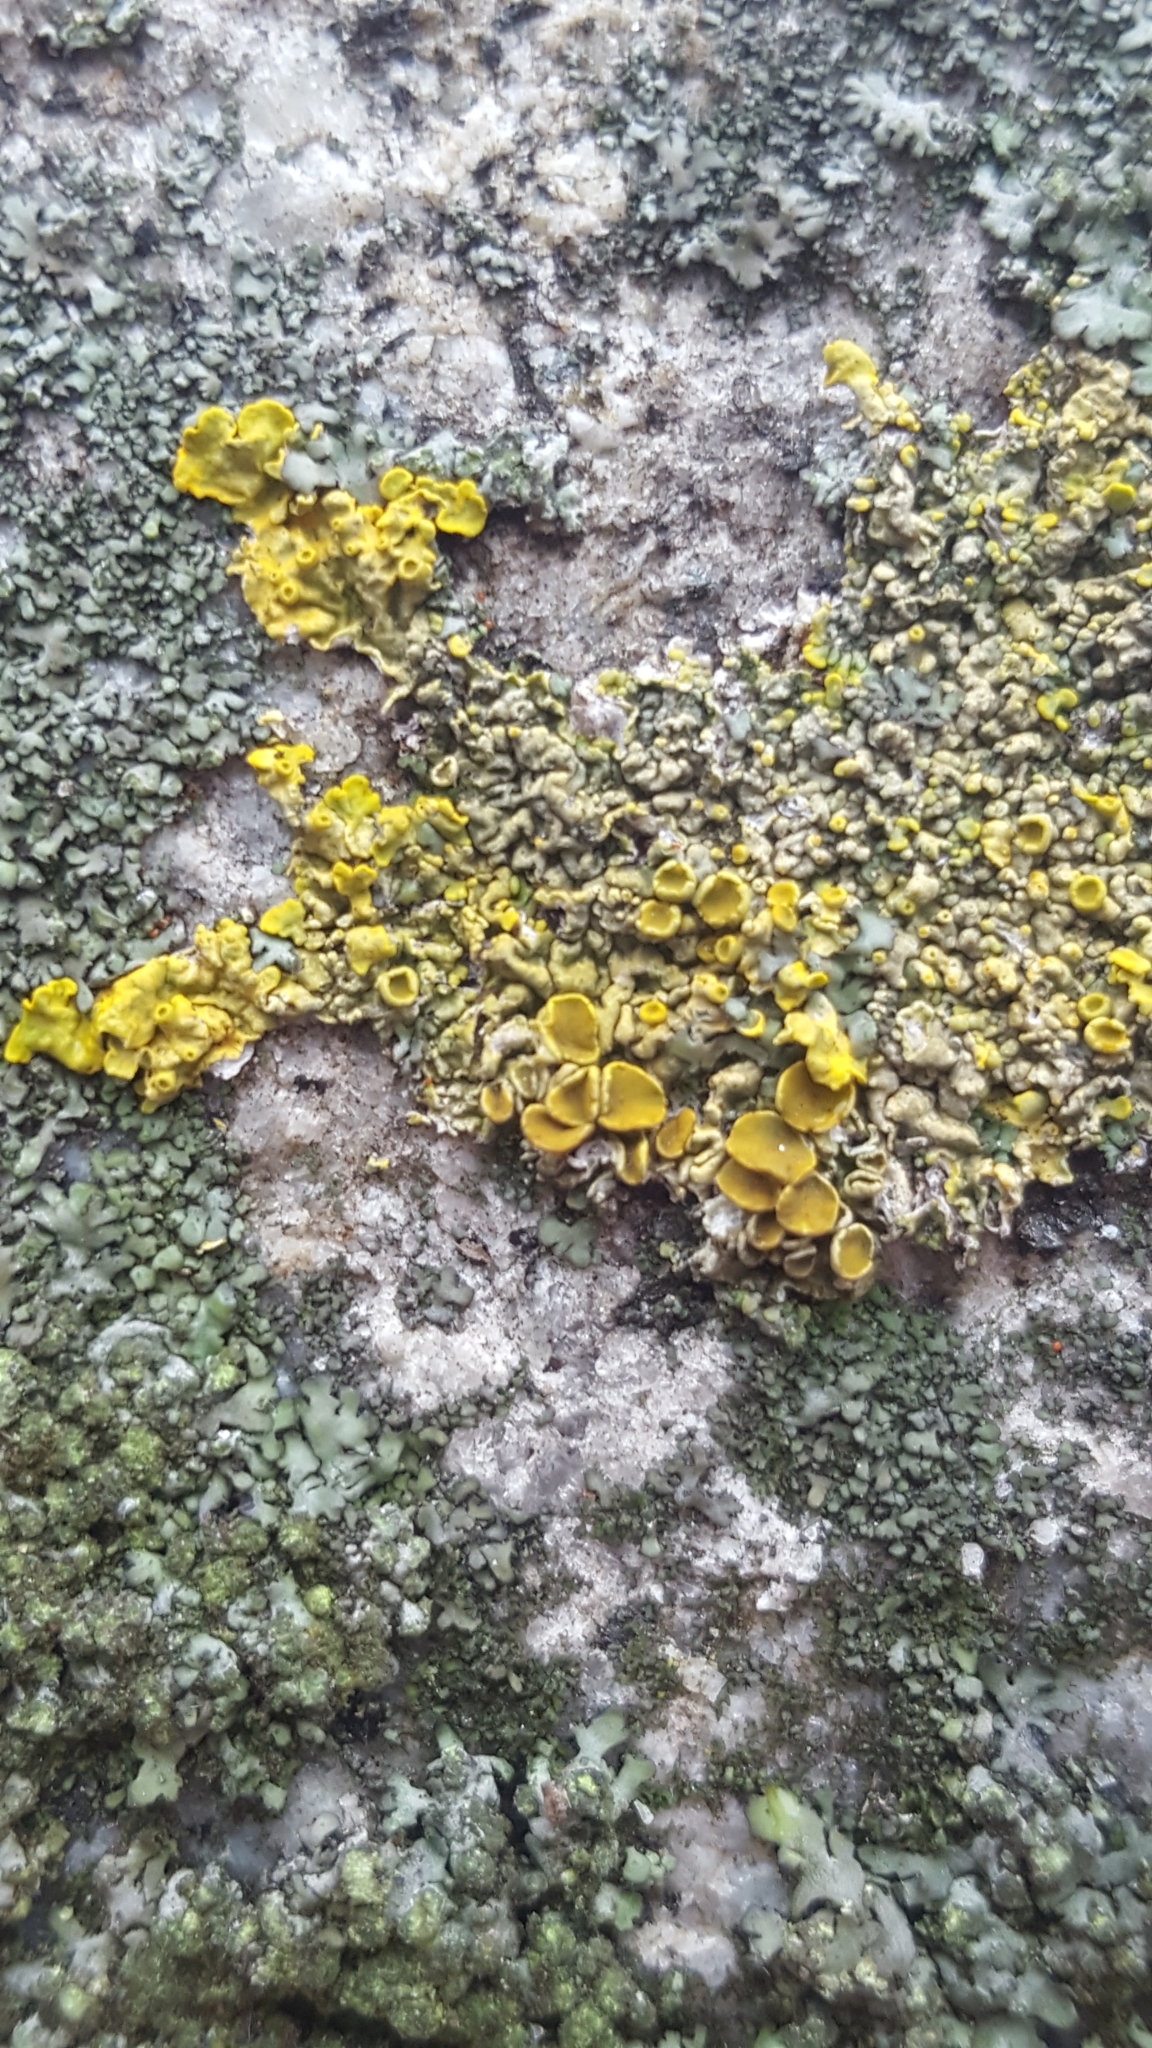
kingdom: Fungi
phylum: Ascomycota
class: Lecanoromycetes
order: Teloschistales
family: Teloschistaceae
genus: Xanthoria
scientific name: Xanthoria parietina
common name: Common orange lichen
